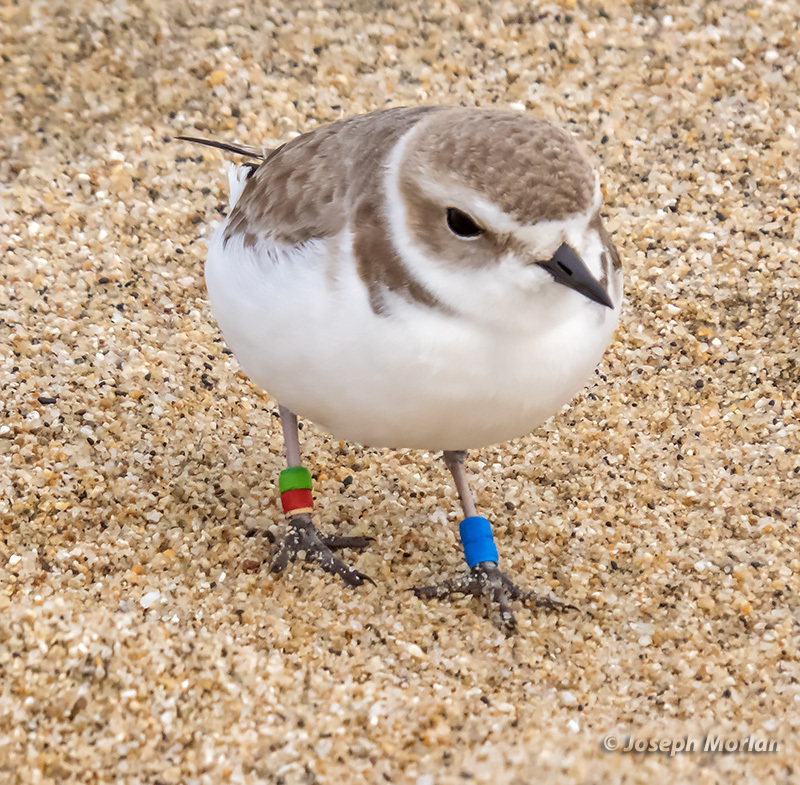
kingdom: Animalia
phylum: Chordata
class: Aves
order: Charadriiformes
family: Charadriidae
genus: Anarhynchus
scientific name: Anarhynchus
